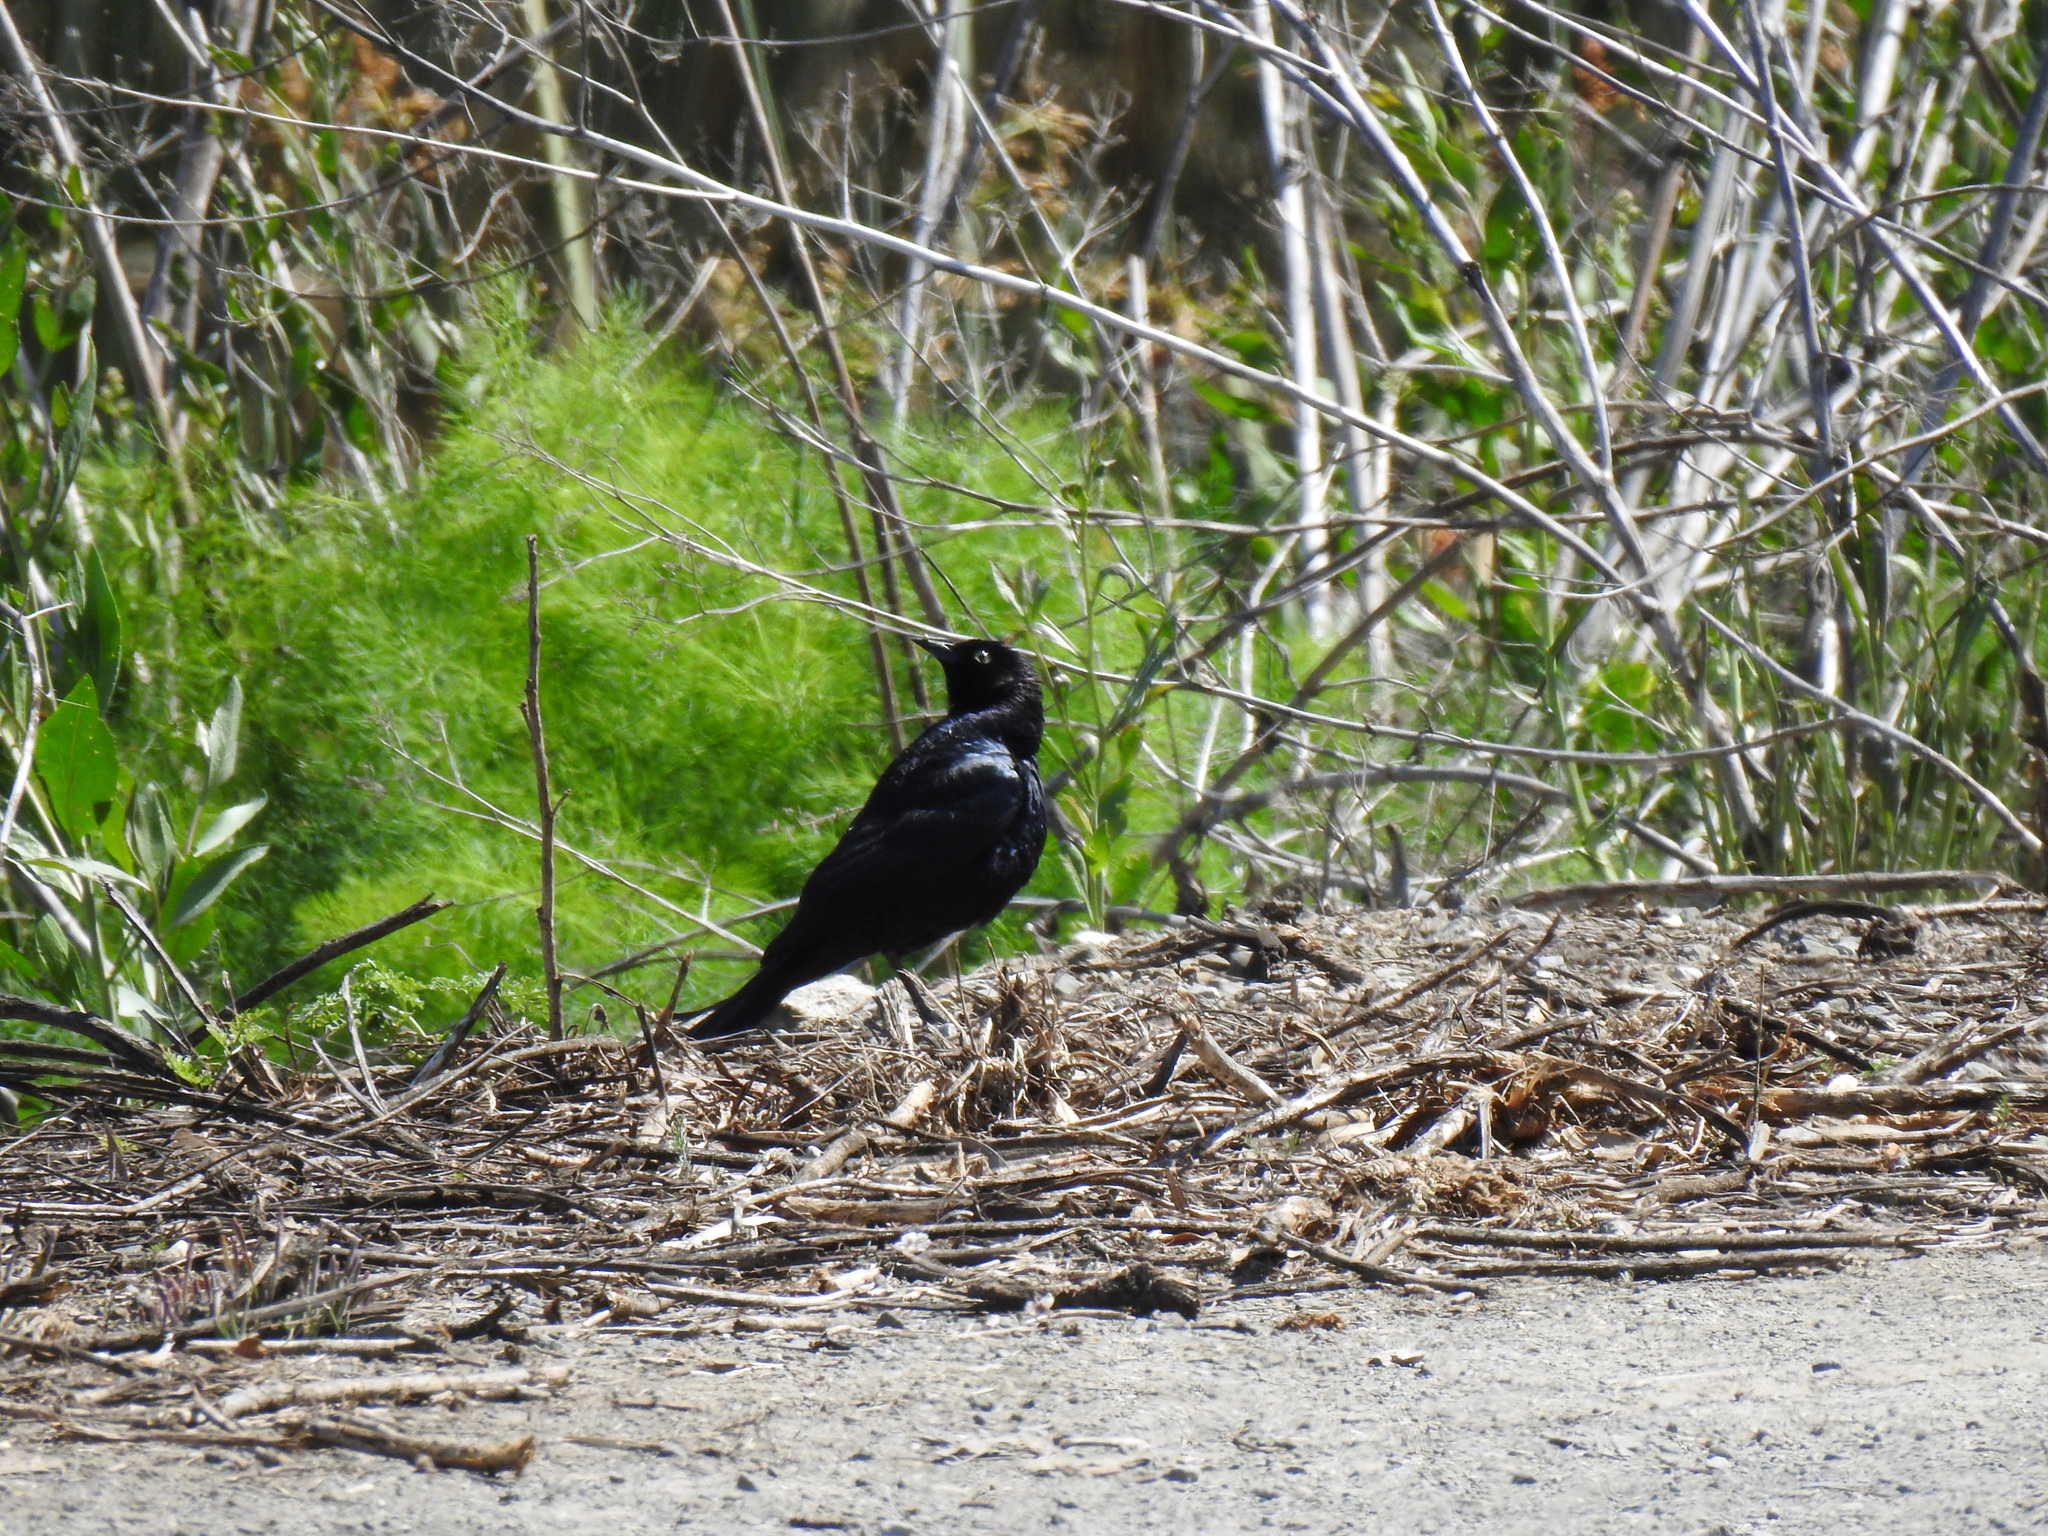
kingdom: Animalia
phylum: Chordata
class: Aves
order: Passeriformes
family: Icteridae
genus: Euphagus
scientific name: Euphagus cyanocephalus
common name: Brewer's blackbird
